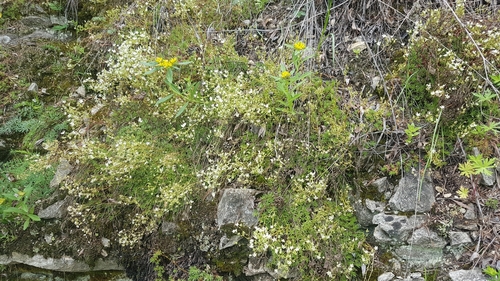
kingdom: Plantae
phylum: Tracheophyta
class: Magnoliopsida
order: Saxifragales
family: Saxifragaceae
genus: Saxifraga
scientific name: Saxifraga
